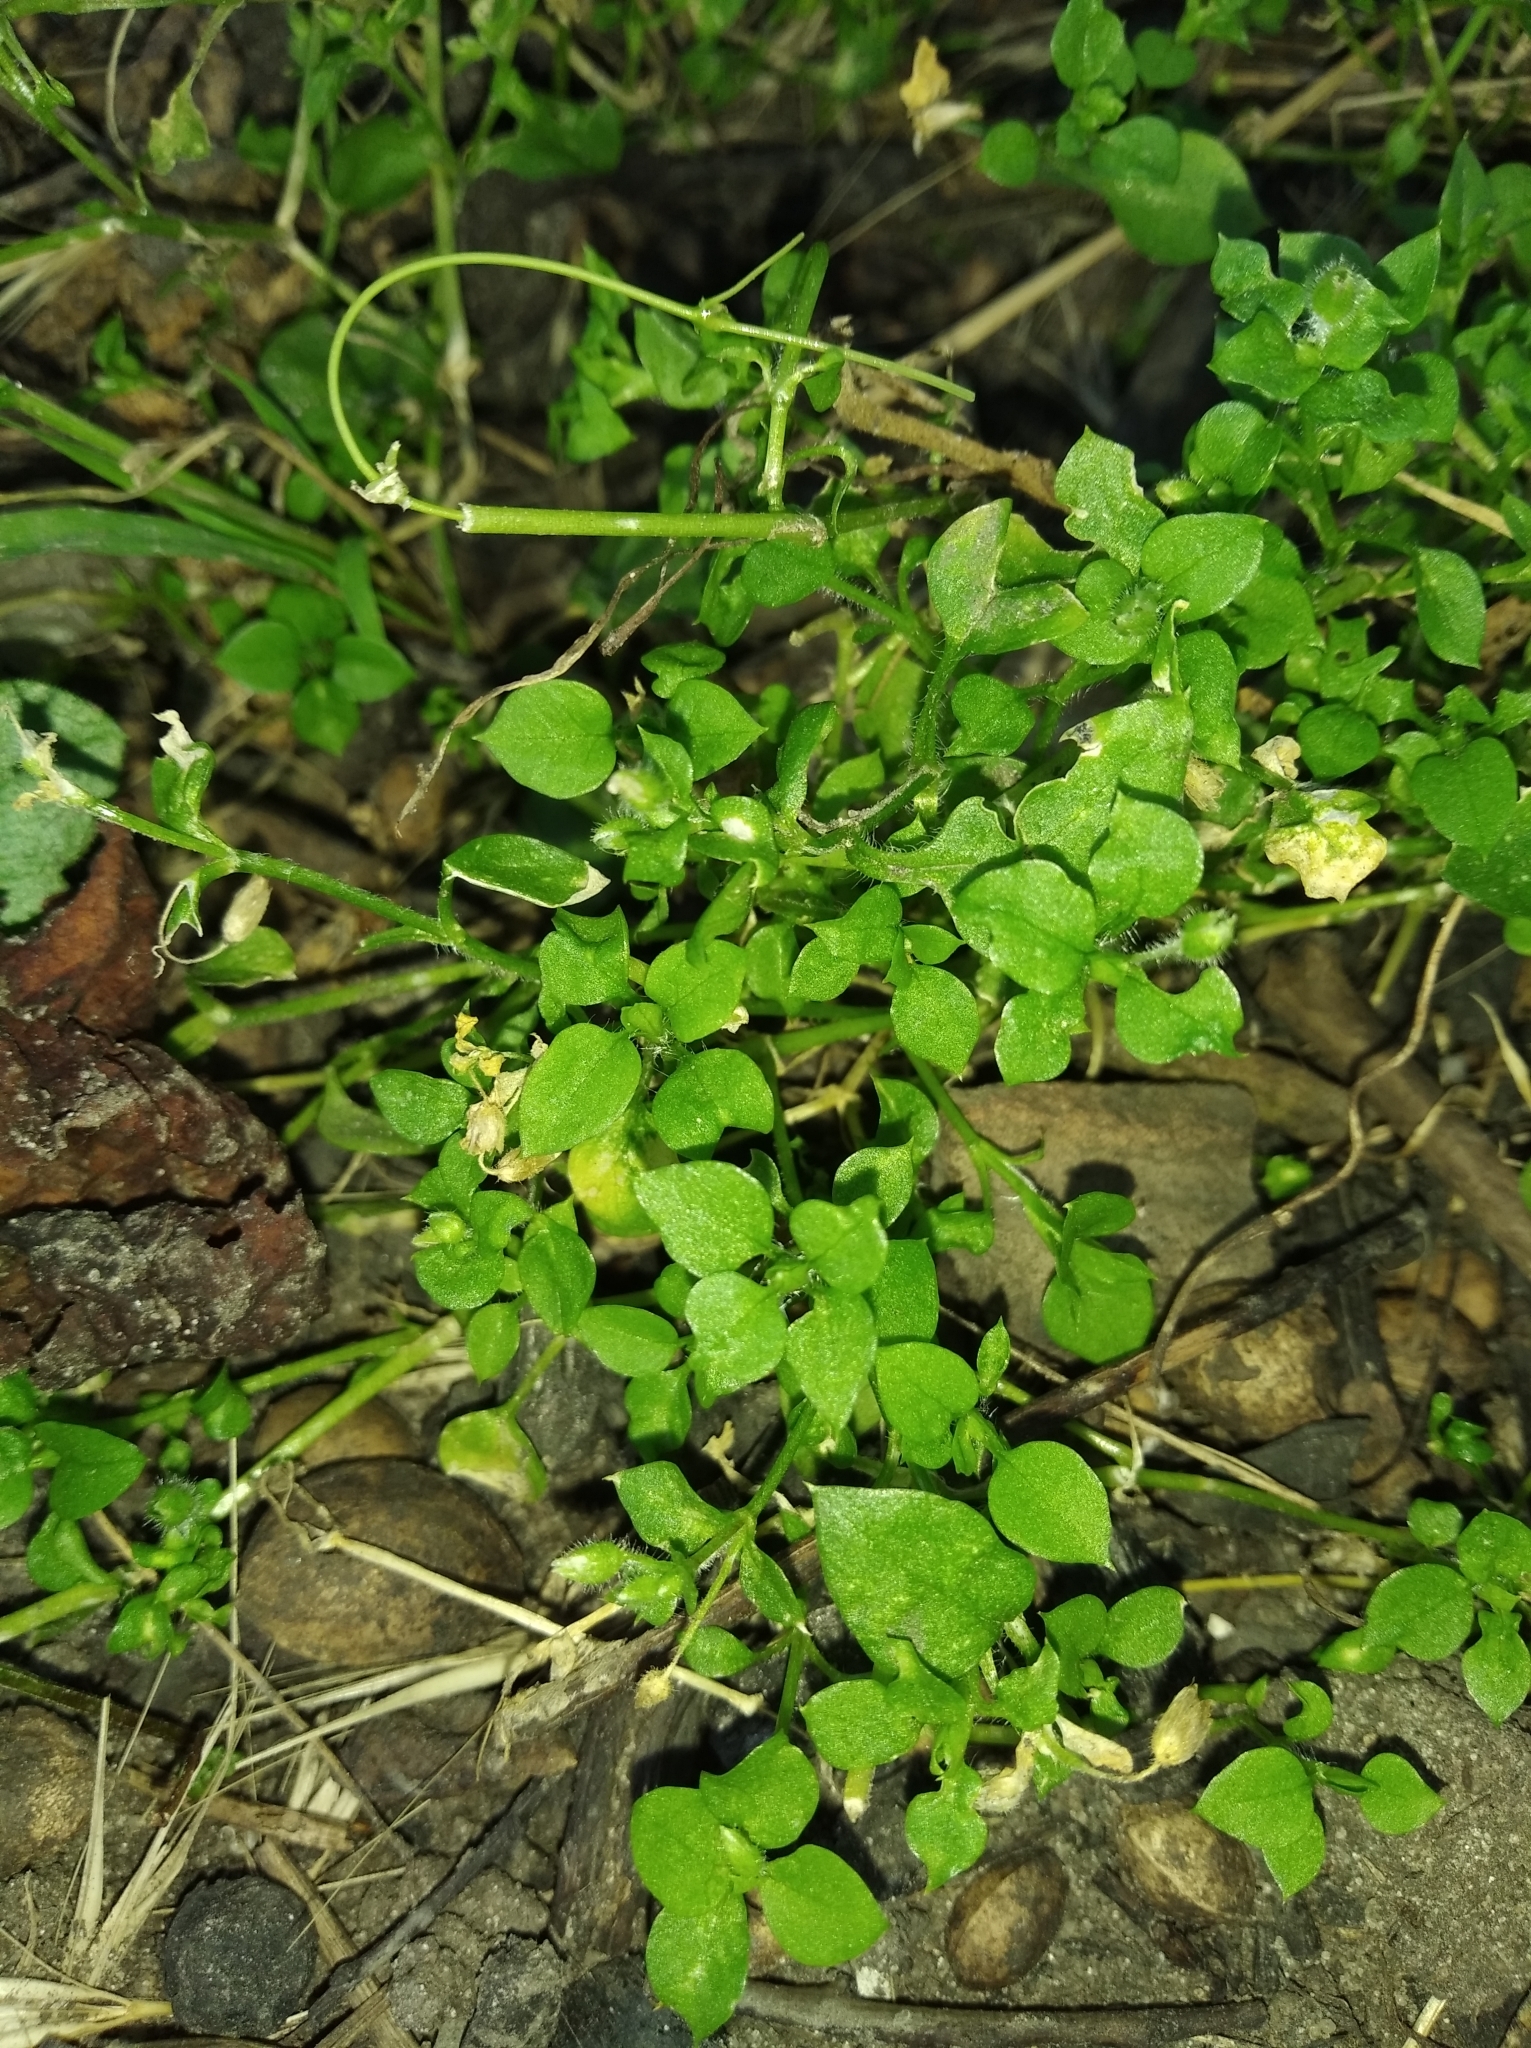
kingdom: Plantae
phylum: Tracheophyta
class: Magnoliopsida
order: Caryophyllales
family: Caryophyllaceae
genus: Stellaria
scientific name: Stellaria media
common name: Common chickweed
